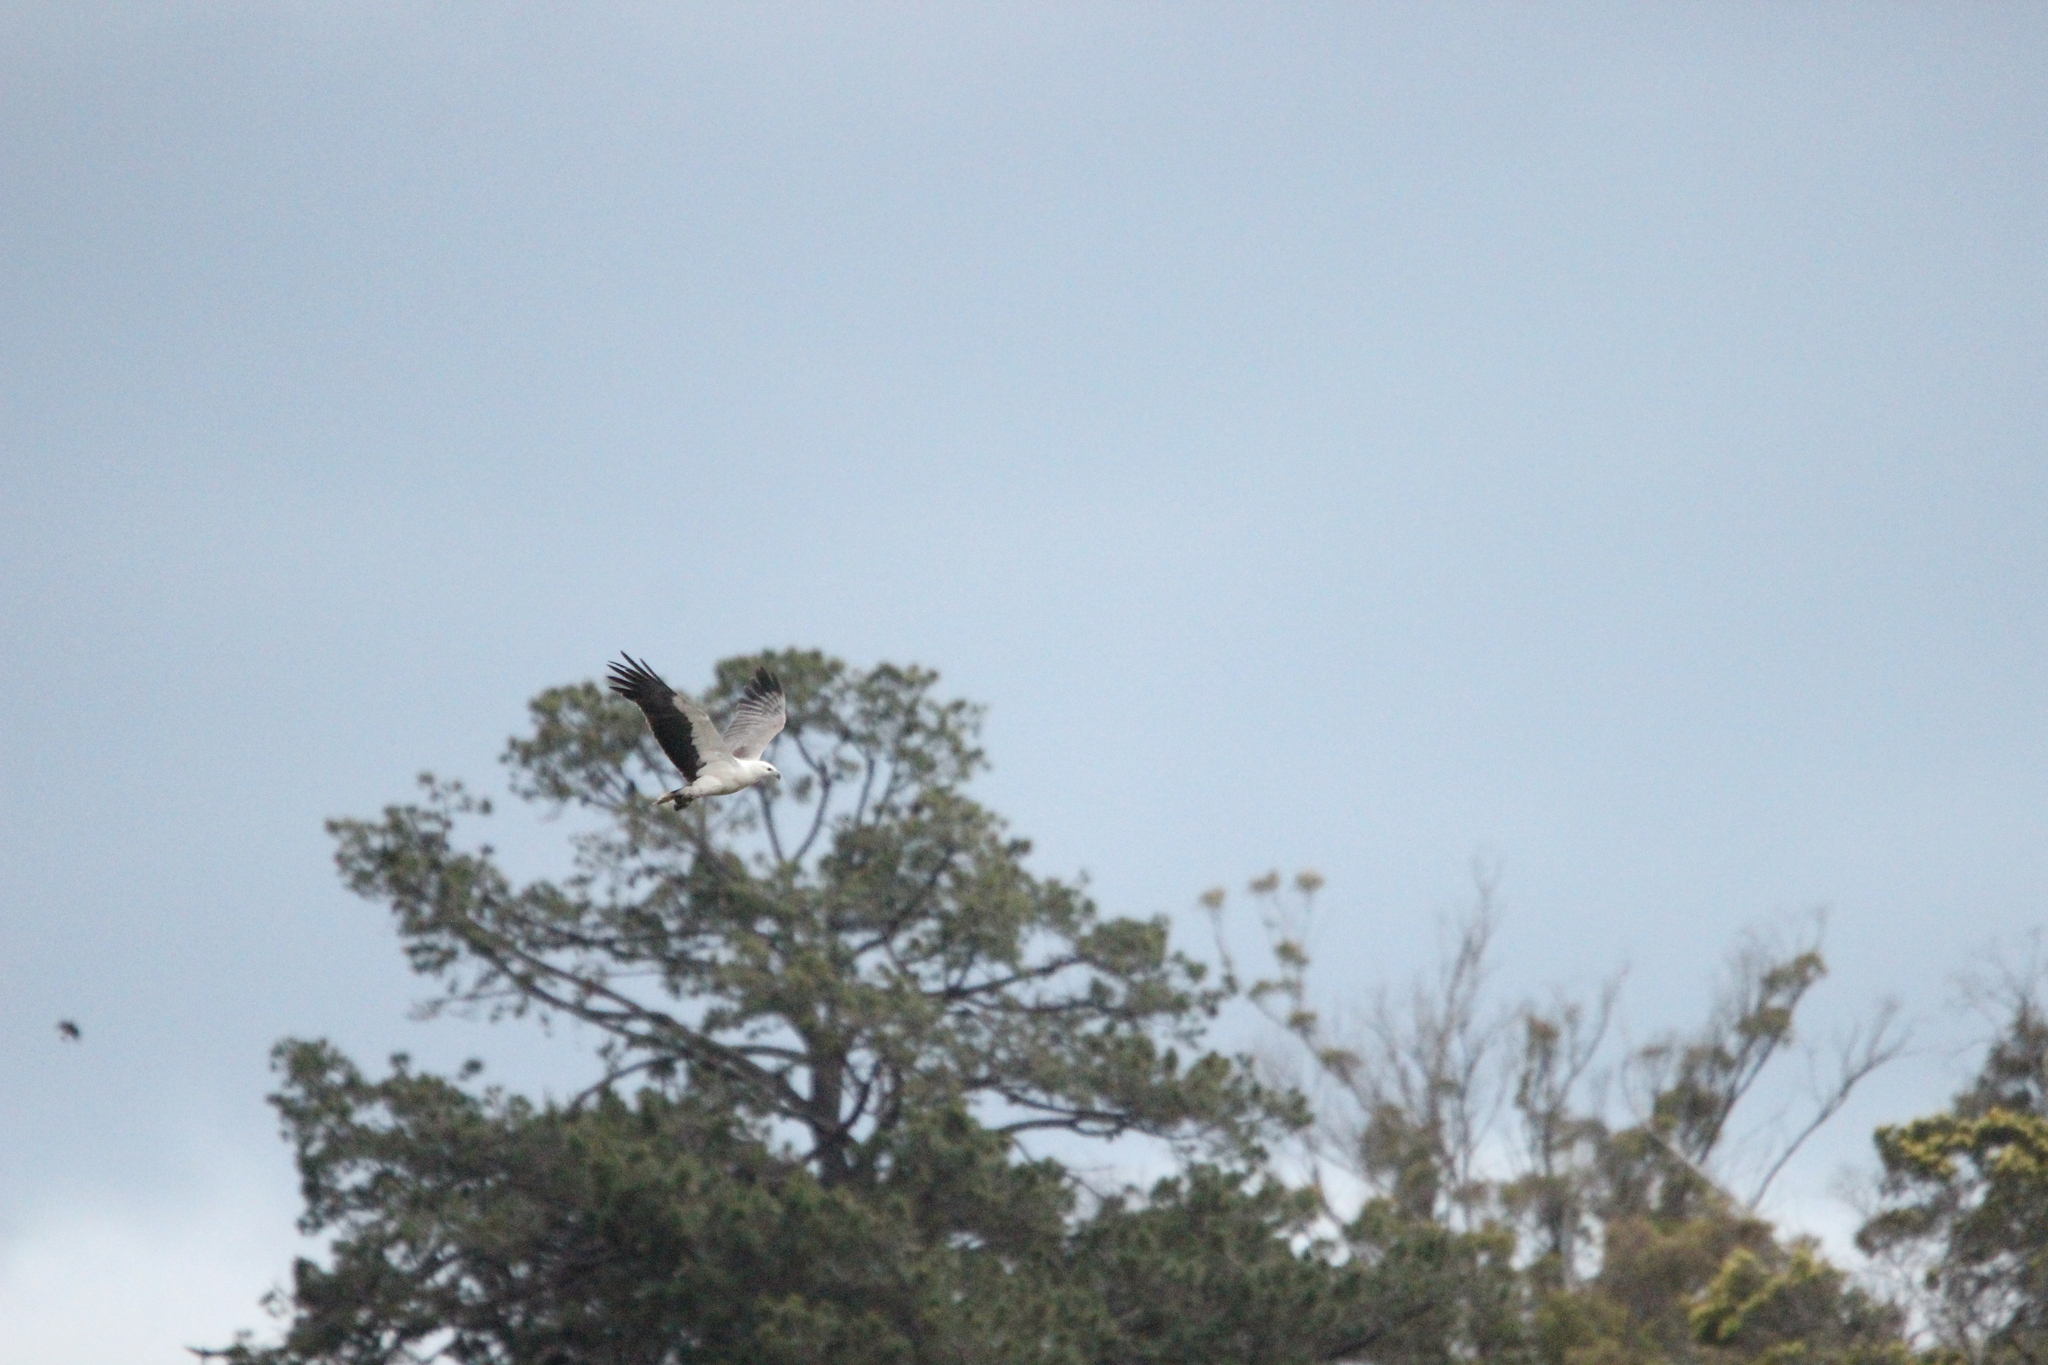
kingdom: Animalia
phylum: Chordata
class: Aves
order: Accipitriformes
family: Accipitridae
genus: Haliaeetus
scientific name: Haliaeetus leucogaster
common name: White-bellied sea eagle
